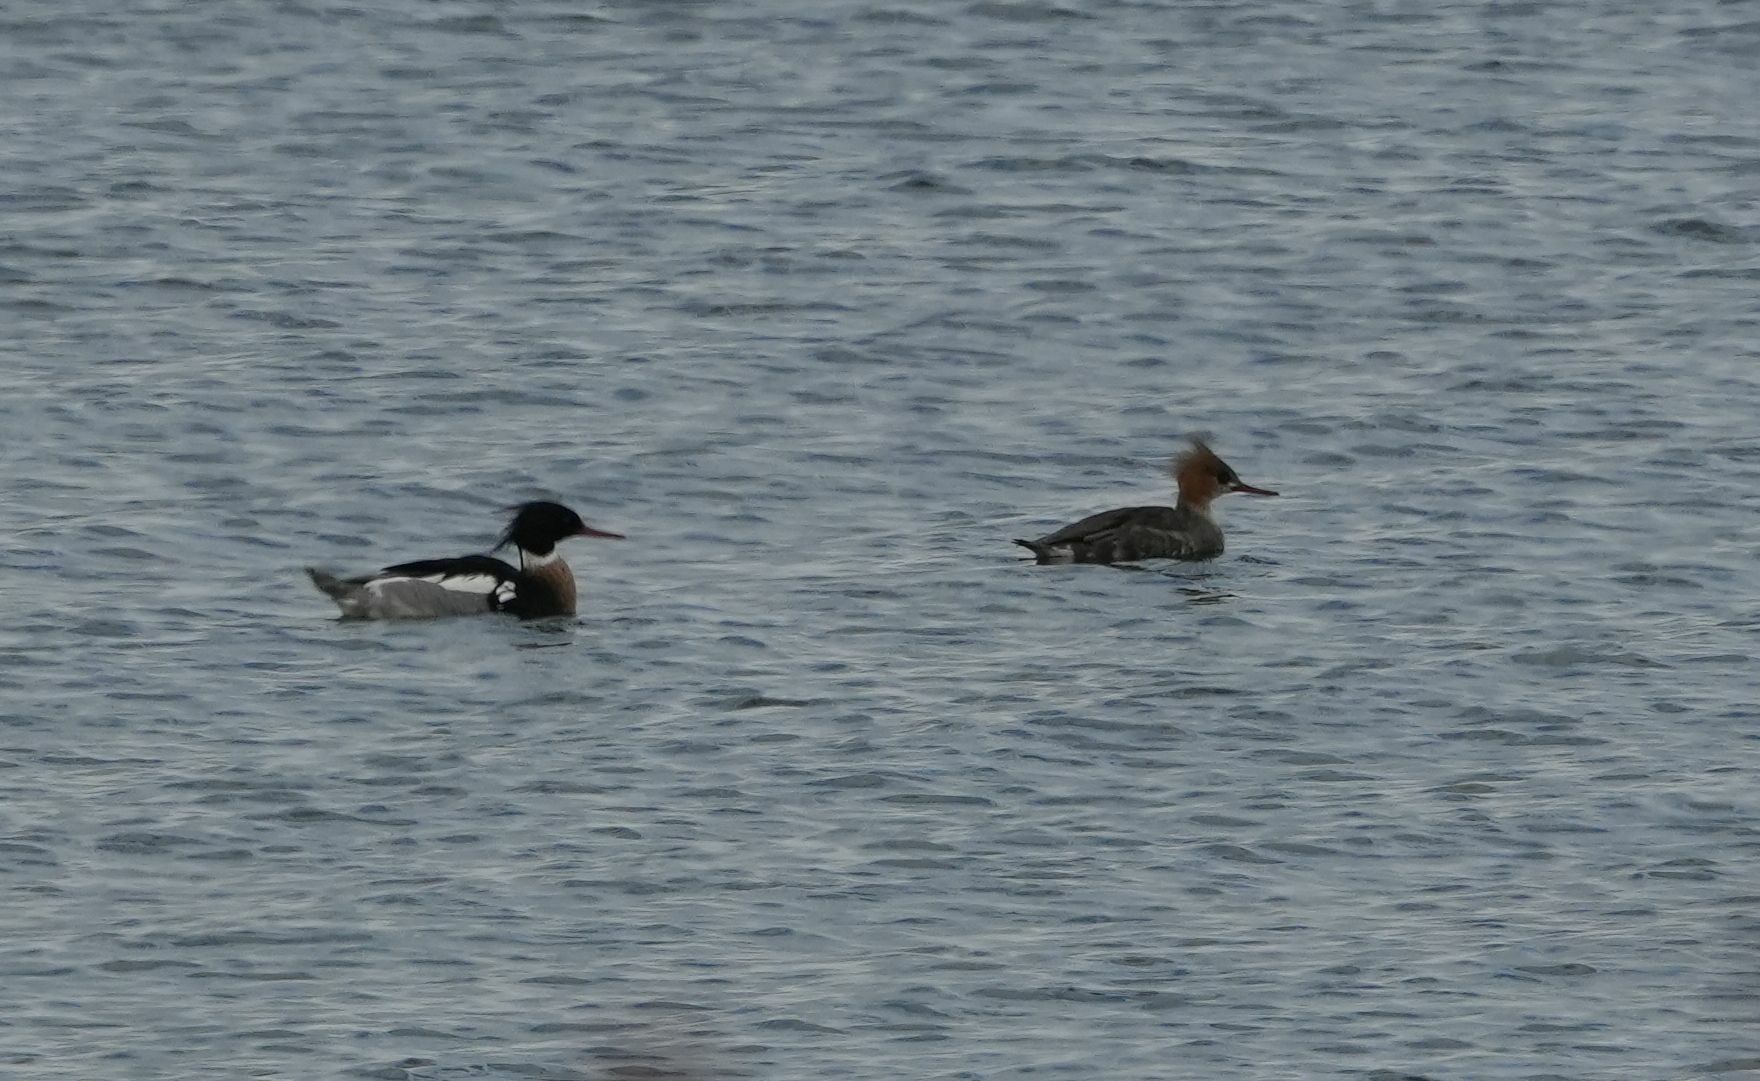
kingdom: Animalia
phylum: Chordata
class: Aves
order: Anseriformes
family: Anatidae
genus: Mergus
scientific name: Mergus serrator
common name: Red-breasted merganser
